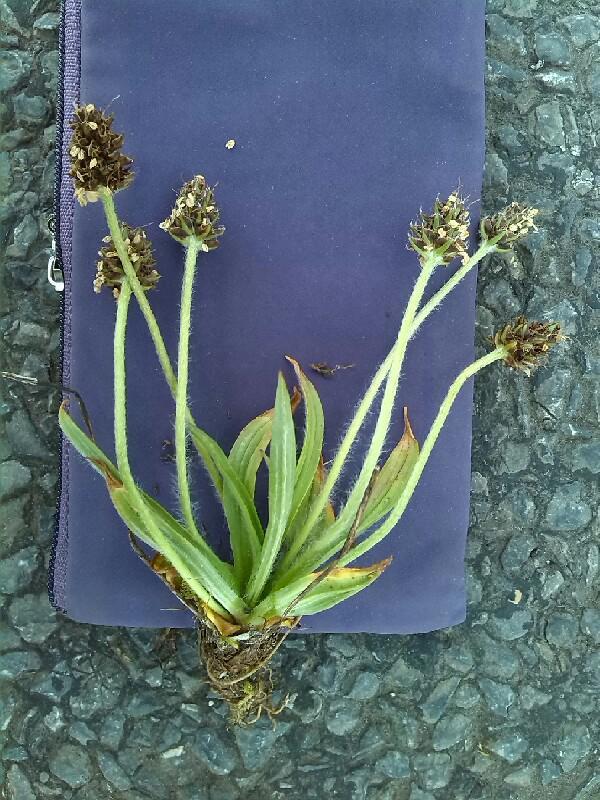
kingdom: Plantae
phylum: Tracheophyta
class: Magnoliopsida
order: Lamiales
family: Plantaginaceae
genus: Plantago
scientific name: Plantago atrata
